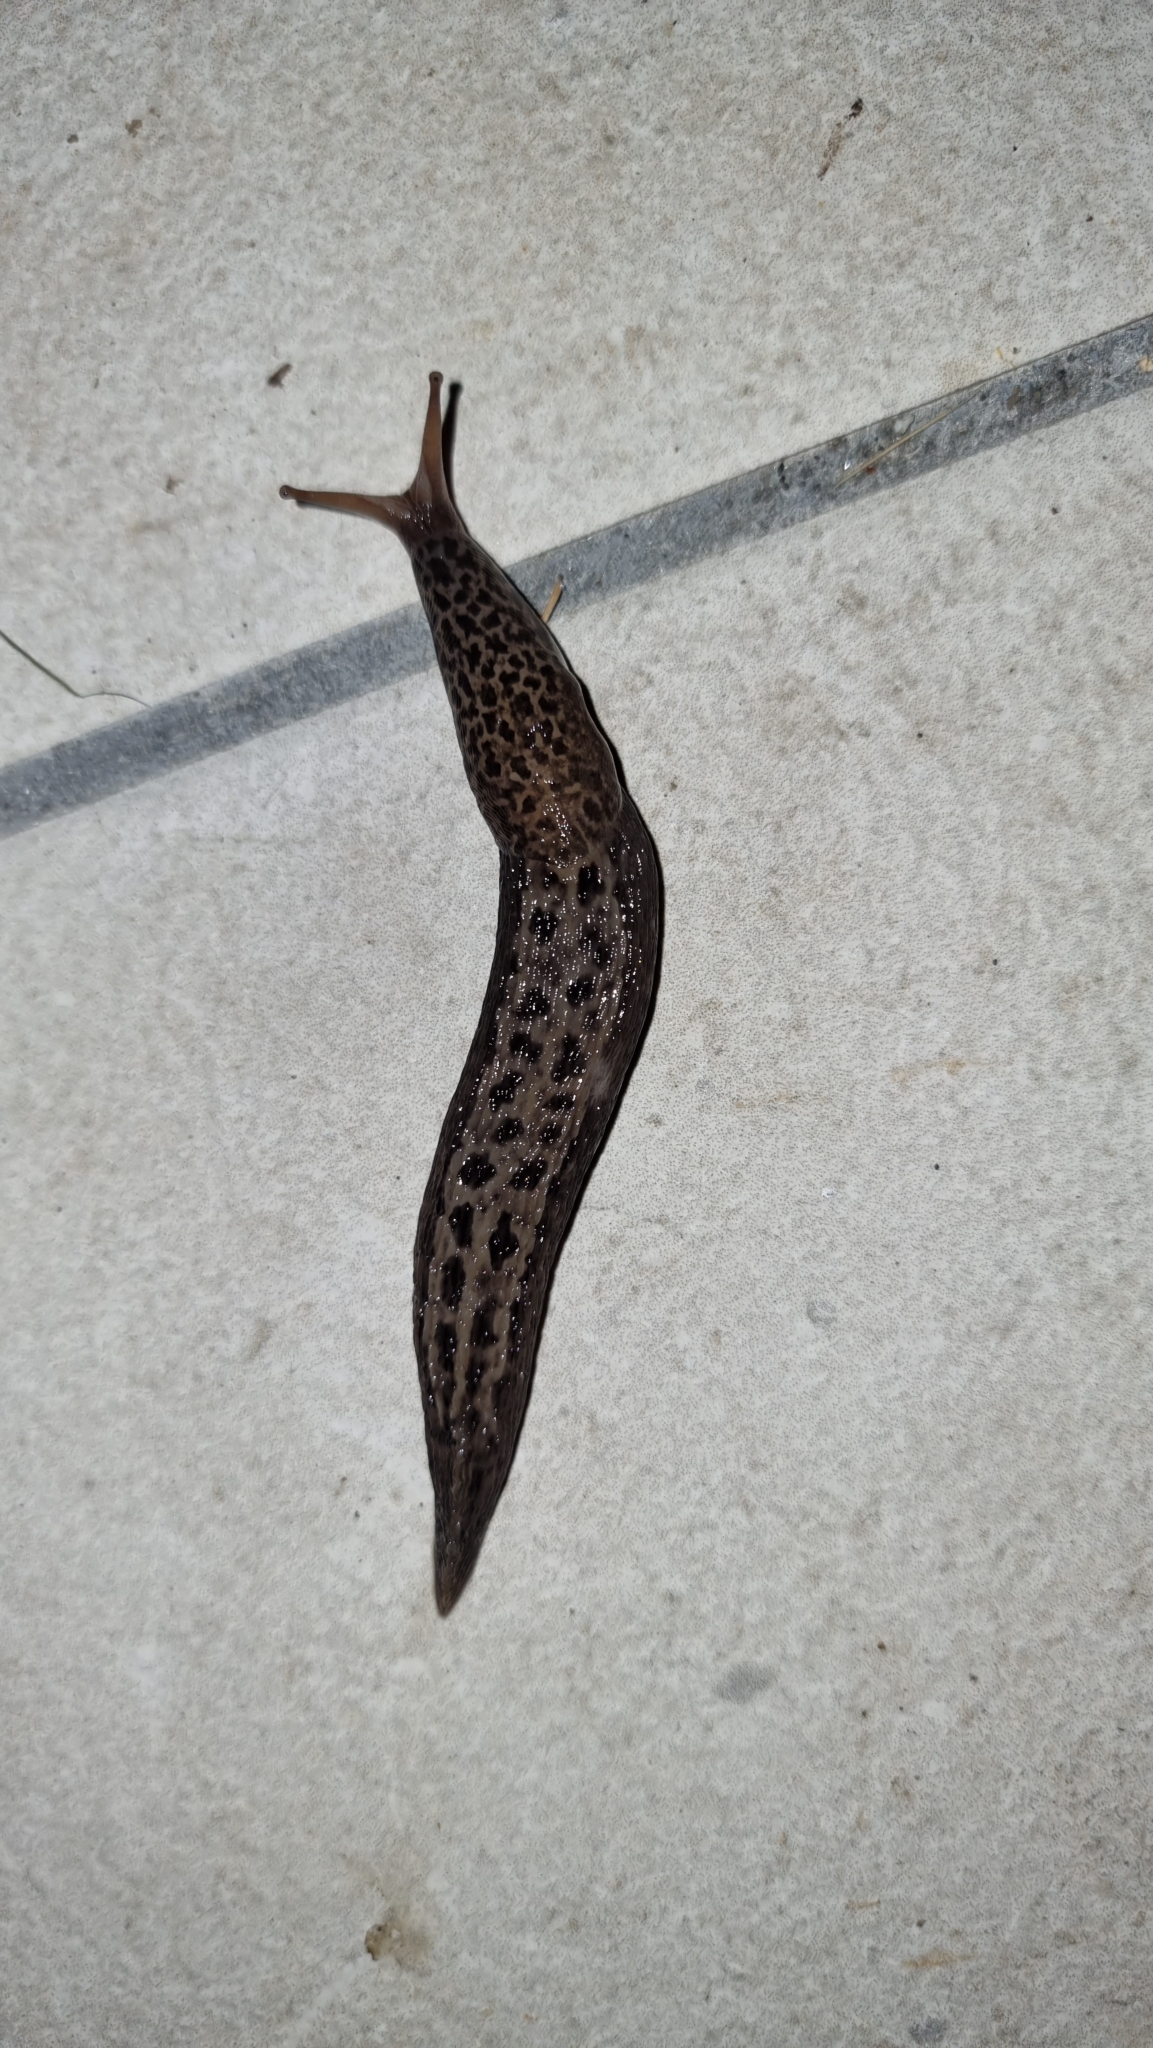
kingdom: Animalia
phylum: Mollusca
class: Gastropoda
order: Stylommatophora
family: Limacidae
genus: Limax
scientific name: Limax maximus
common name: Great grey slug
